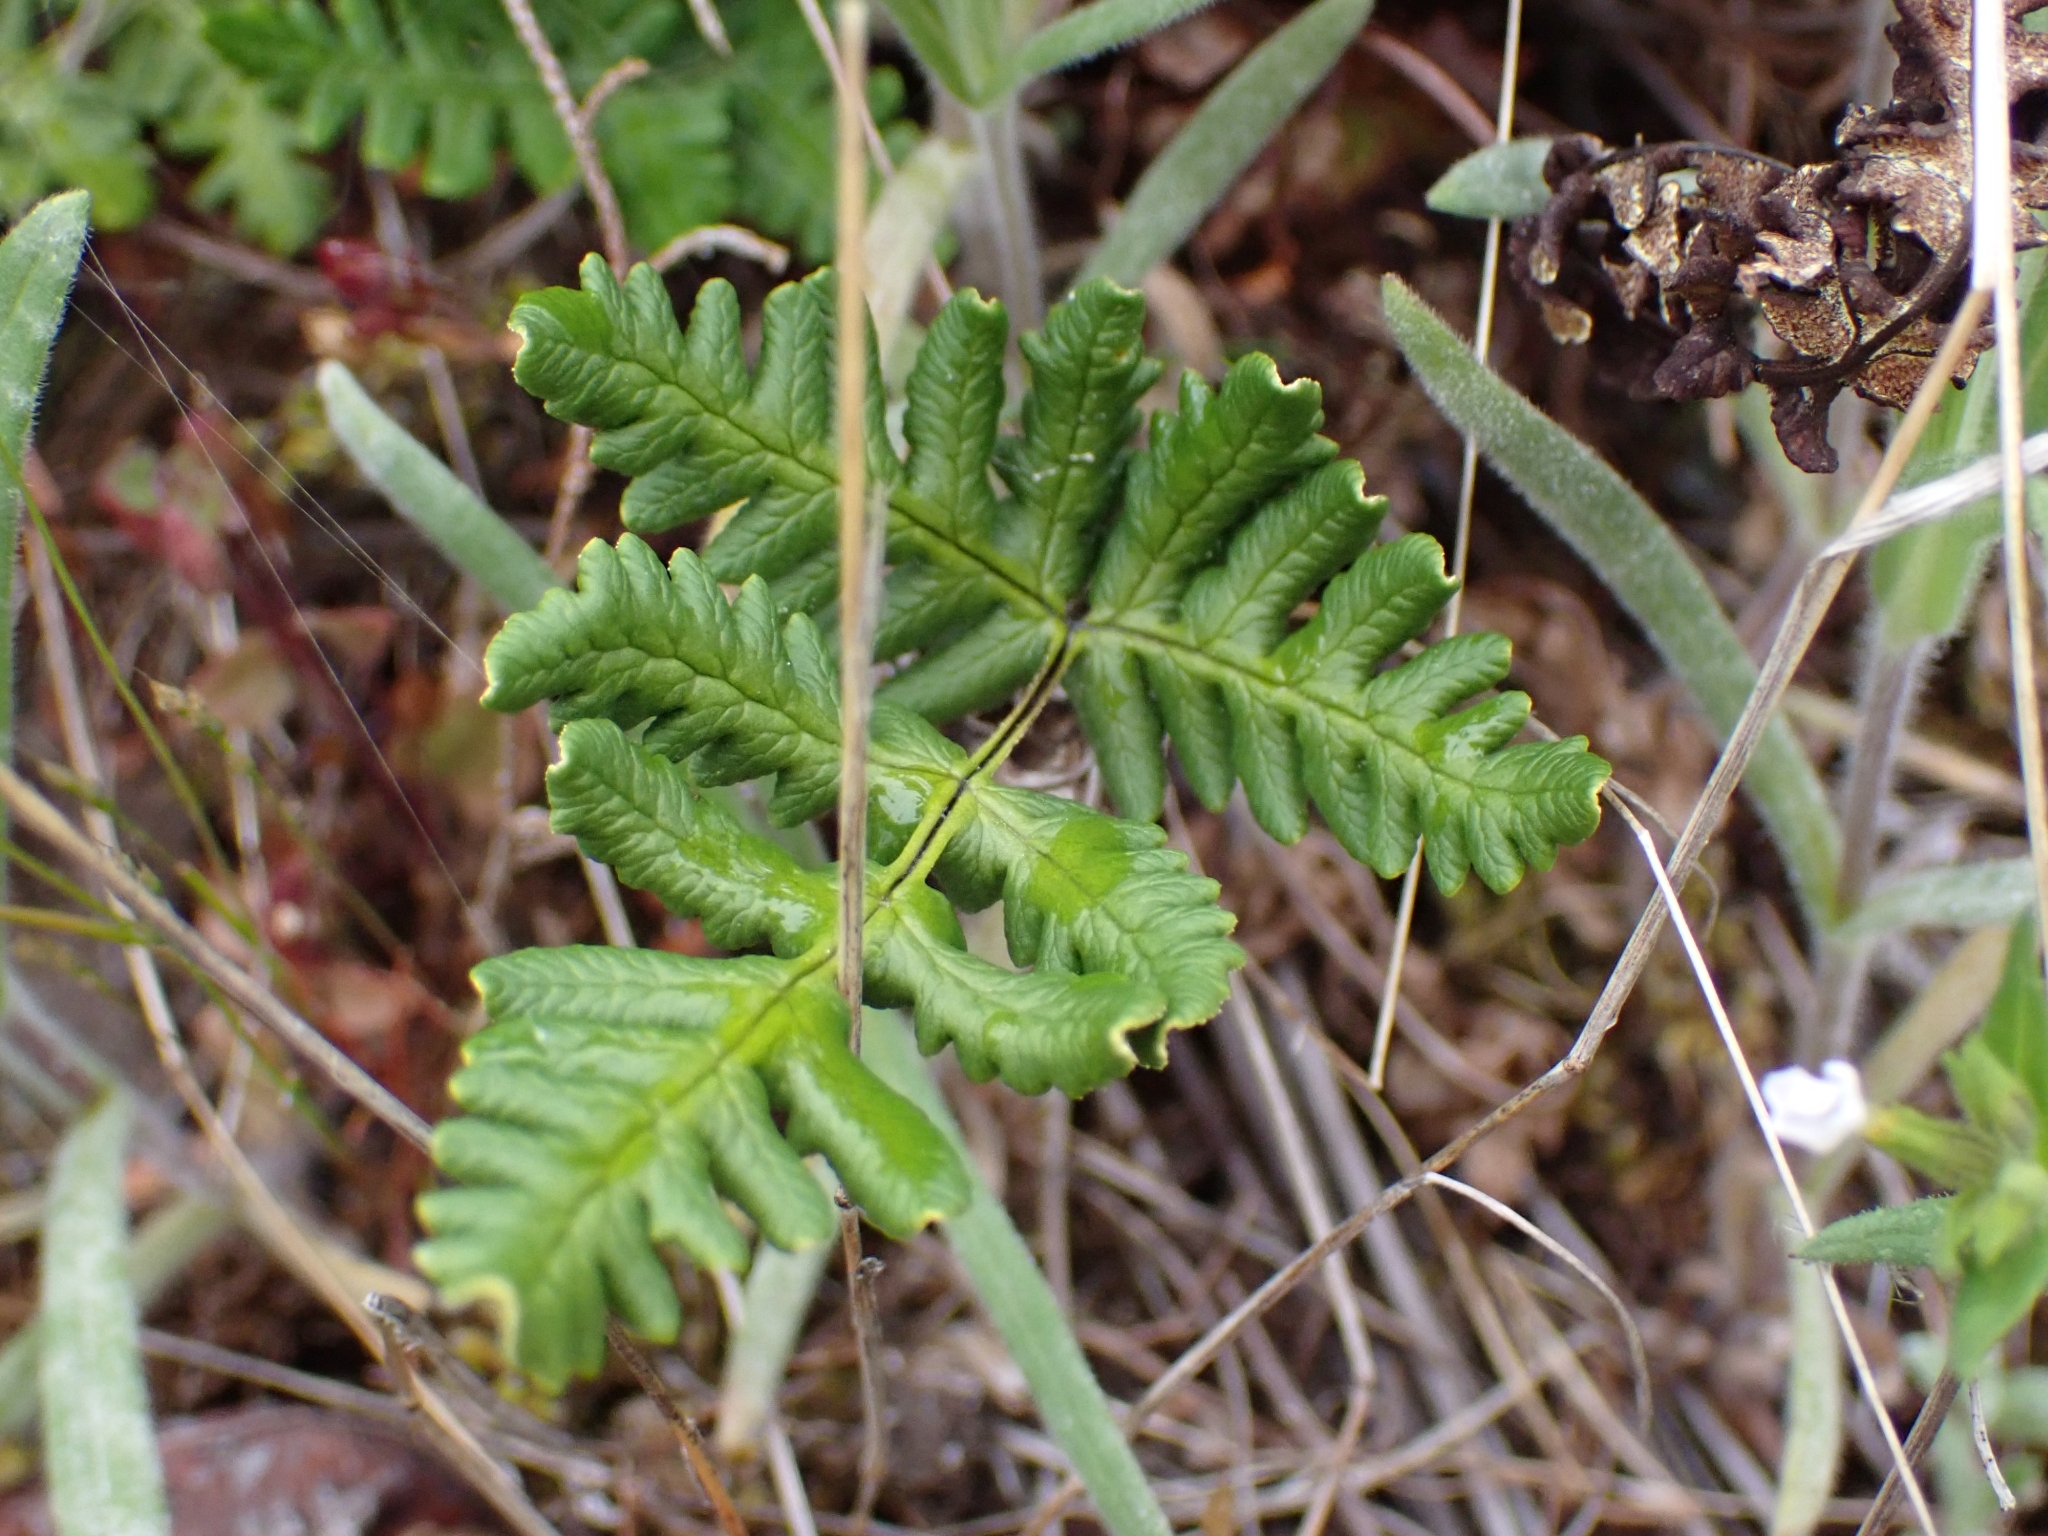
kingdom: Plantae
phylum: Tracheophyta
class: Polypodiopsida
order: Polypodiales
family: Pteridaceae
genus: Pentagramma
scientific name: Pentagramma triangularis
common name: Gold fern
